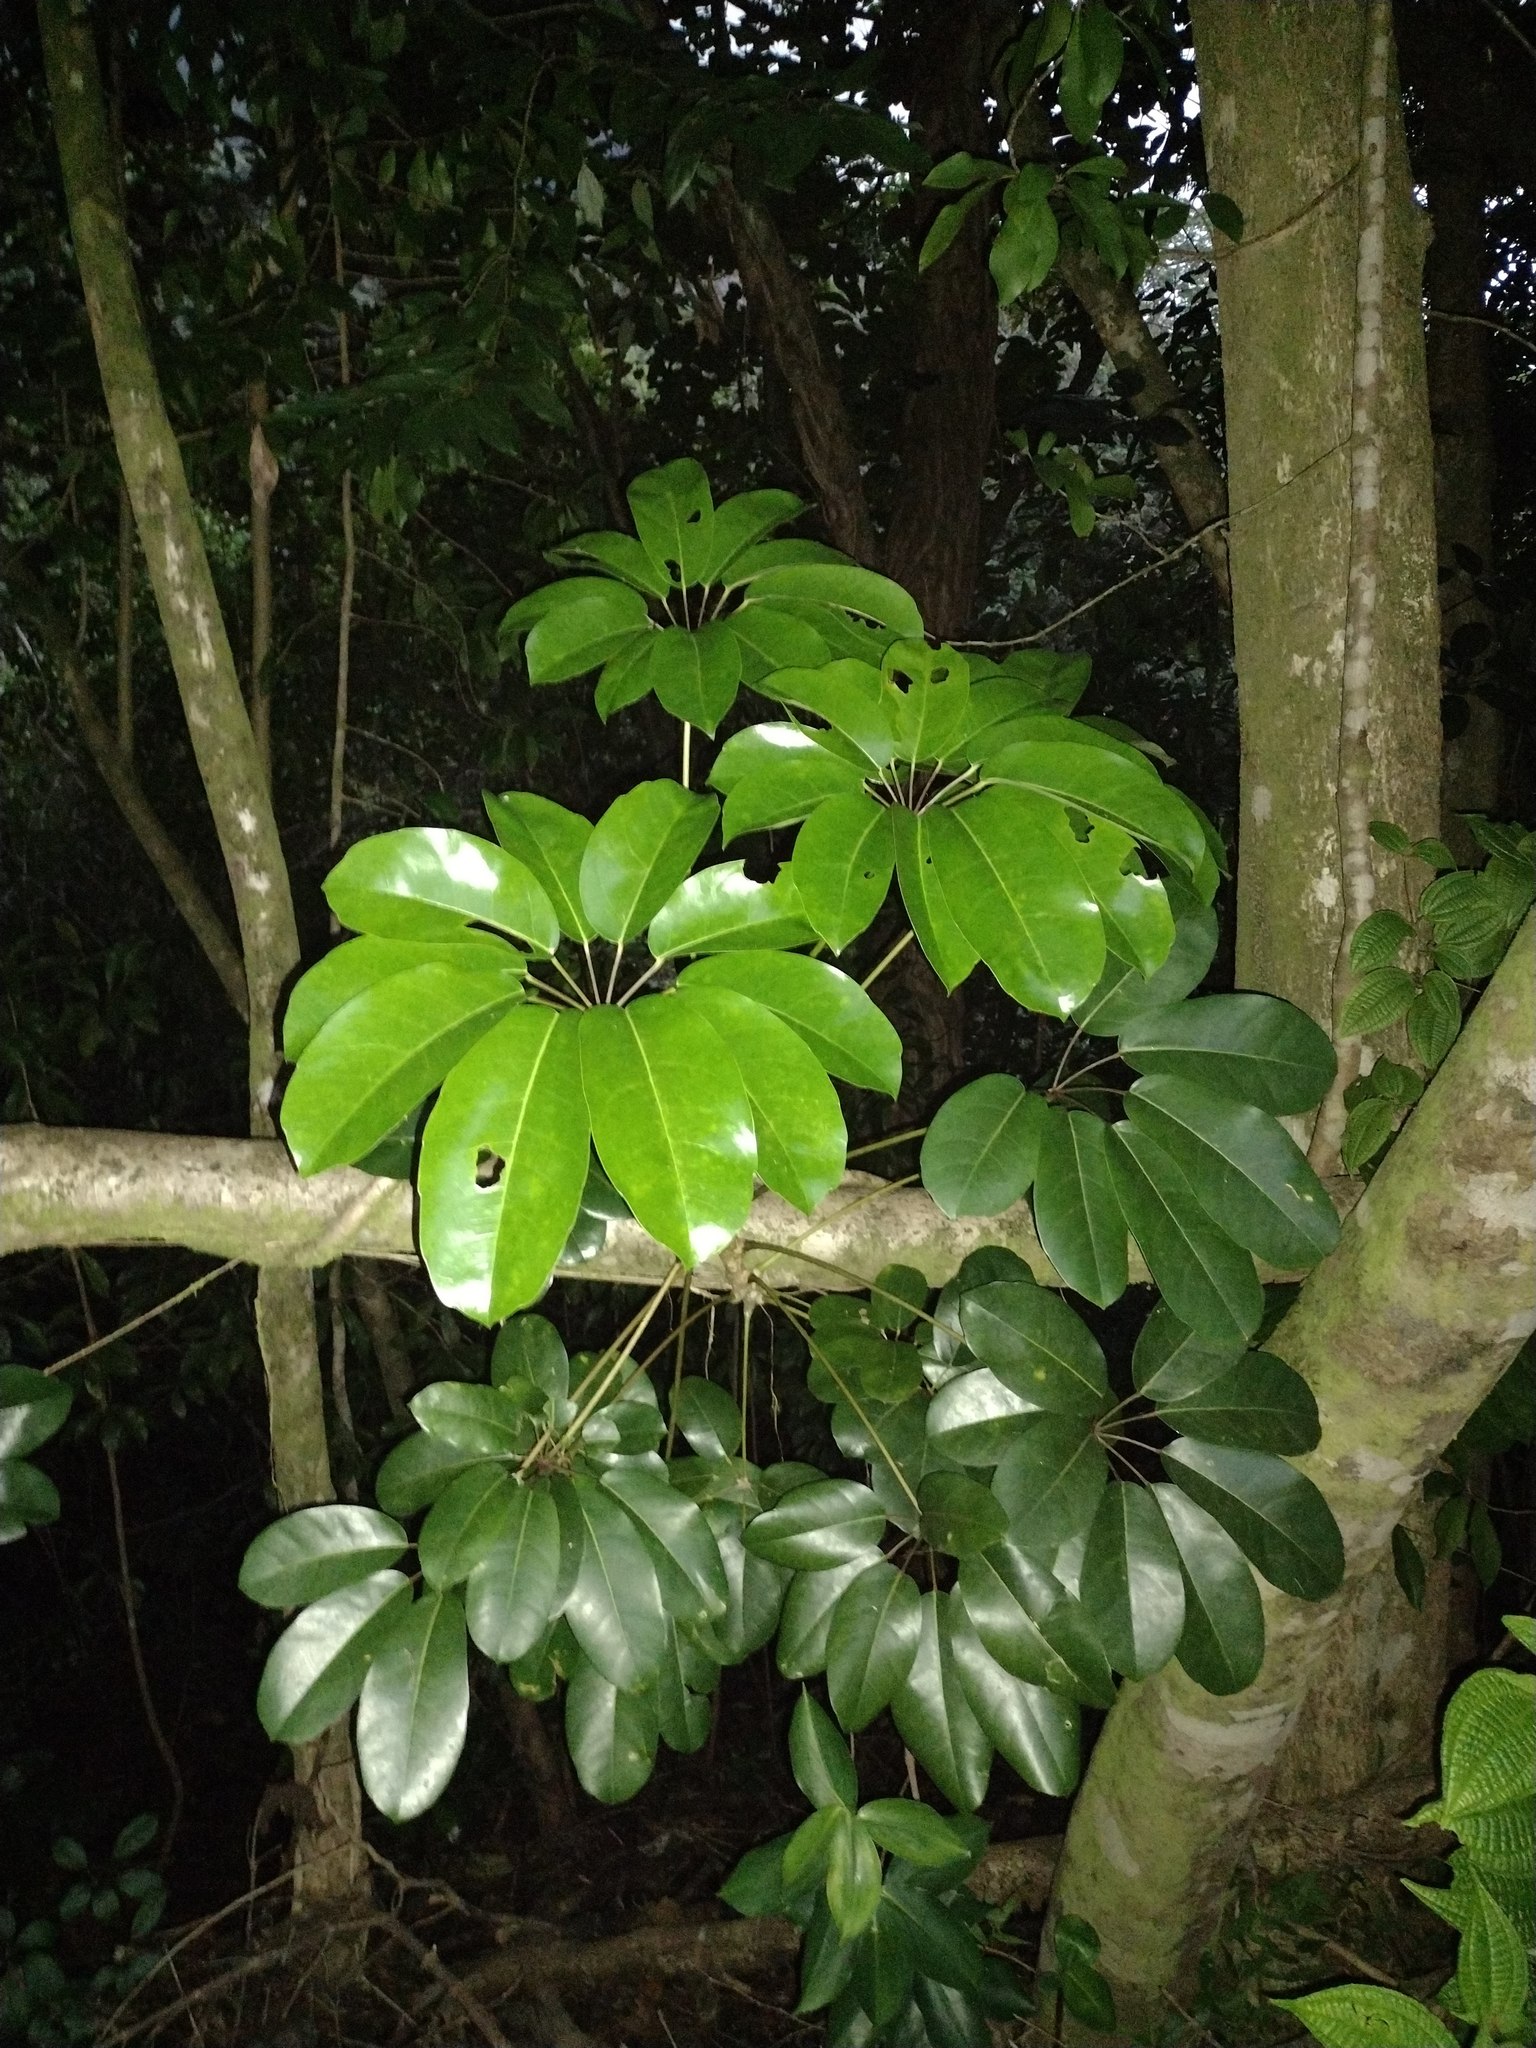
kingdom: Plantae
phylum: Tracheophyta
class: Magnoliopsida
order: Apiales
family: Araliaceae
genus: Heptapleurum
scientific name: Heptapleurum actinophyllum
